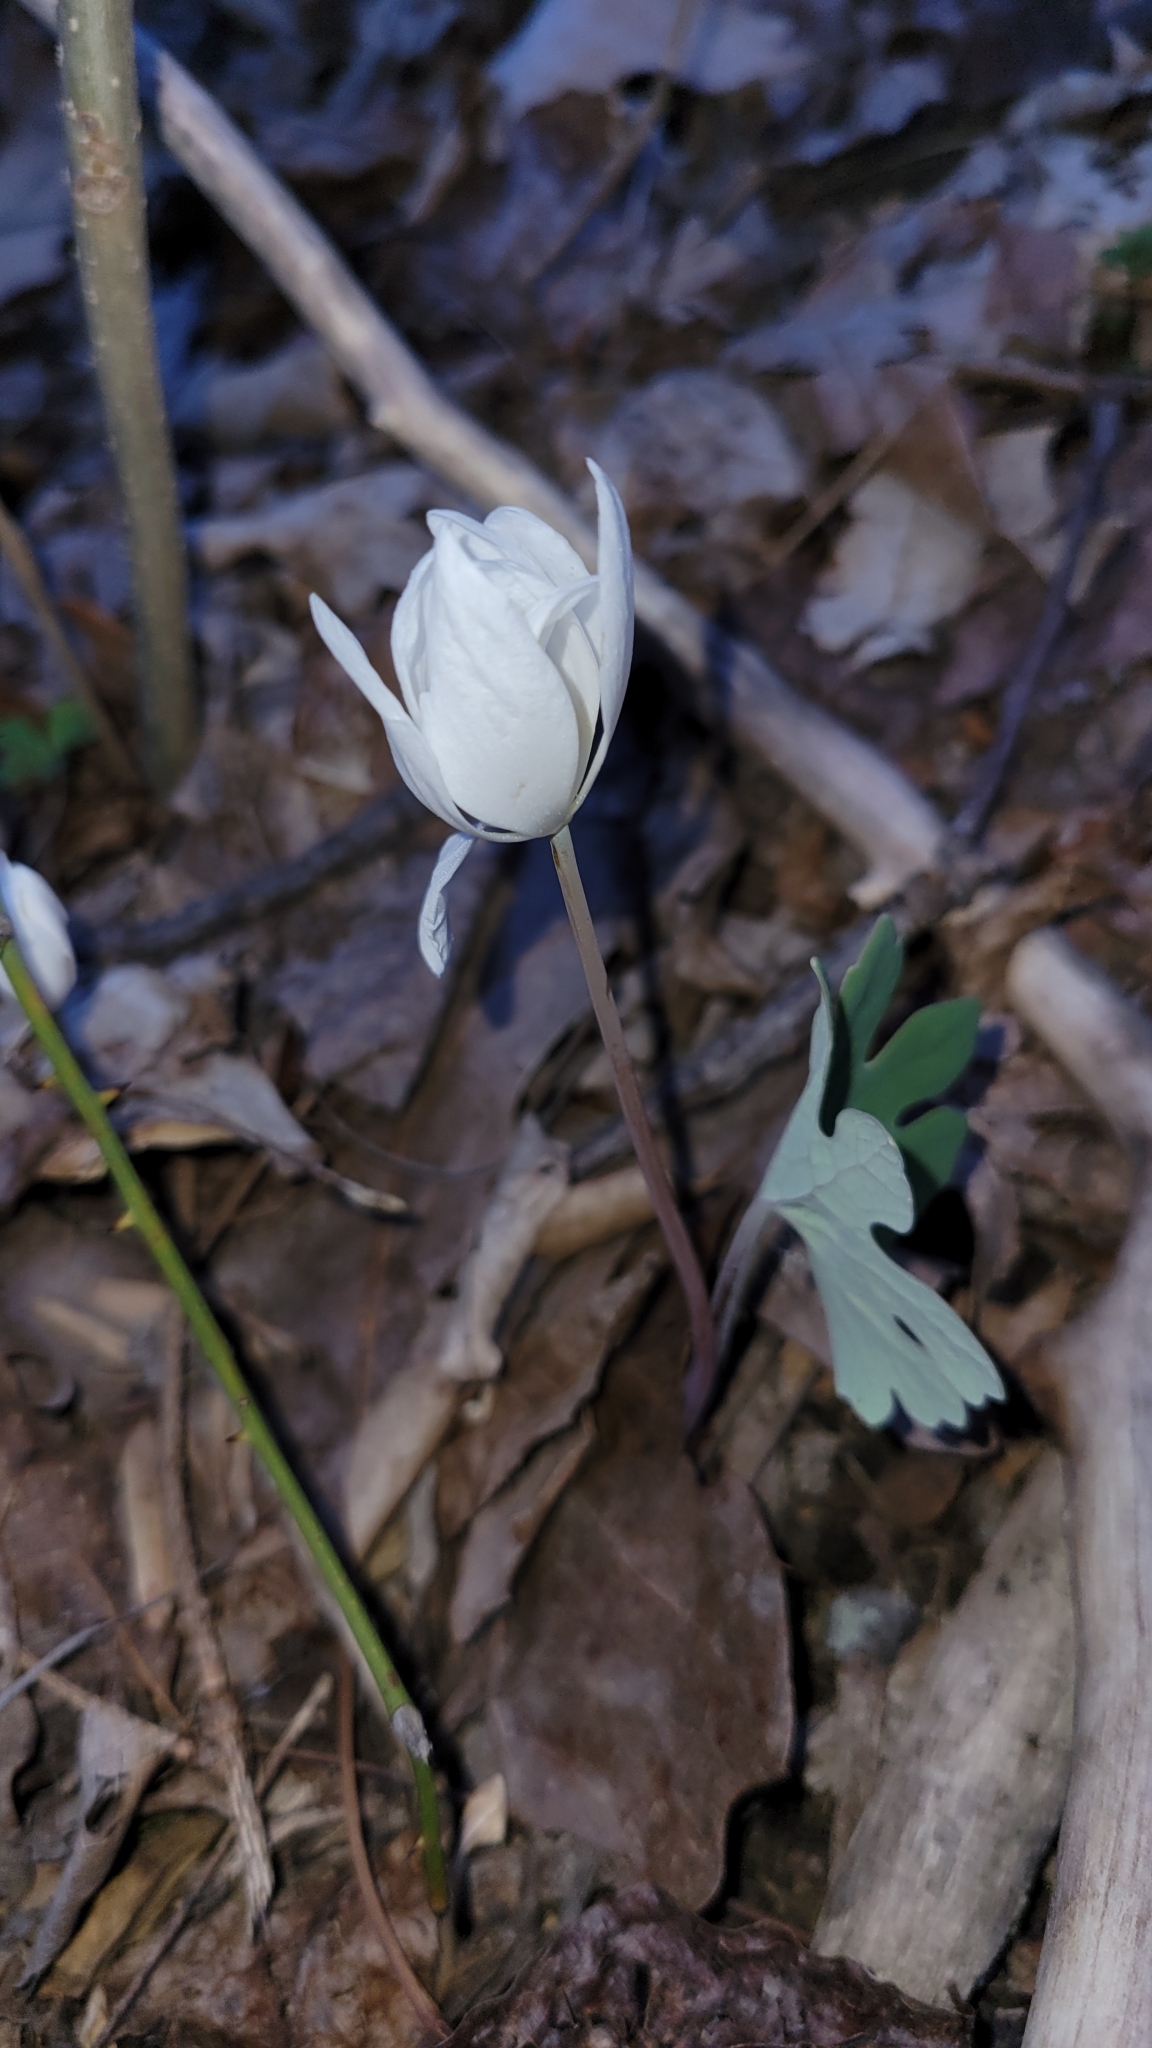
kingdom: Plantae
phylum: Tracheophyta
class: Magnoliopsida
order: Ranunculales
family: Papaveraceae
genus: Sanguinaria
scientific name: Sanguinaria canadensis
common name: Bloodroot
